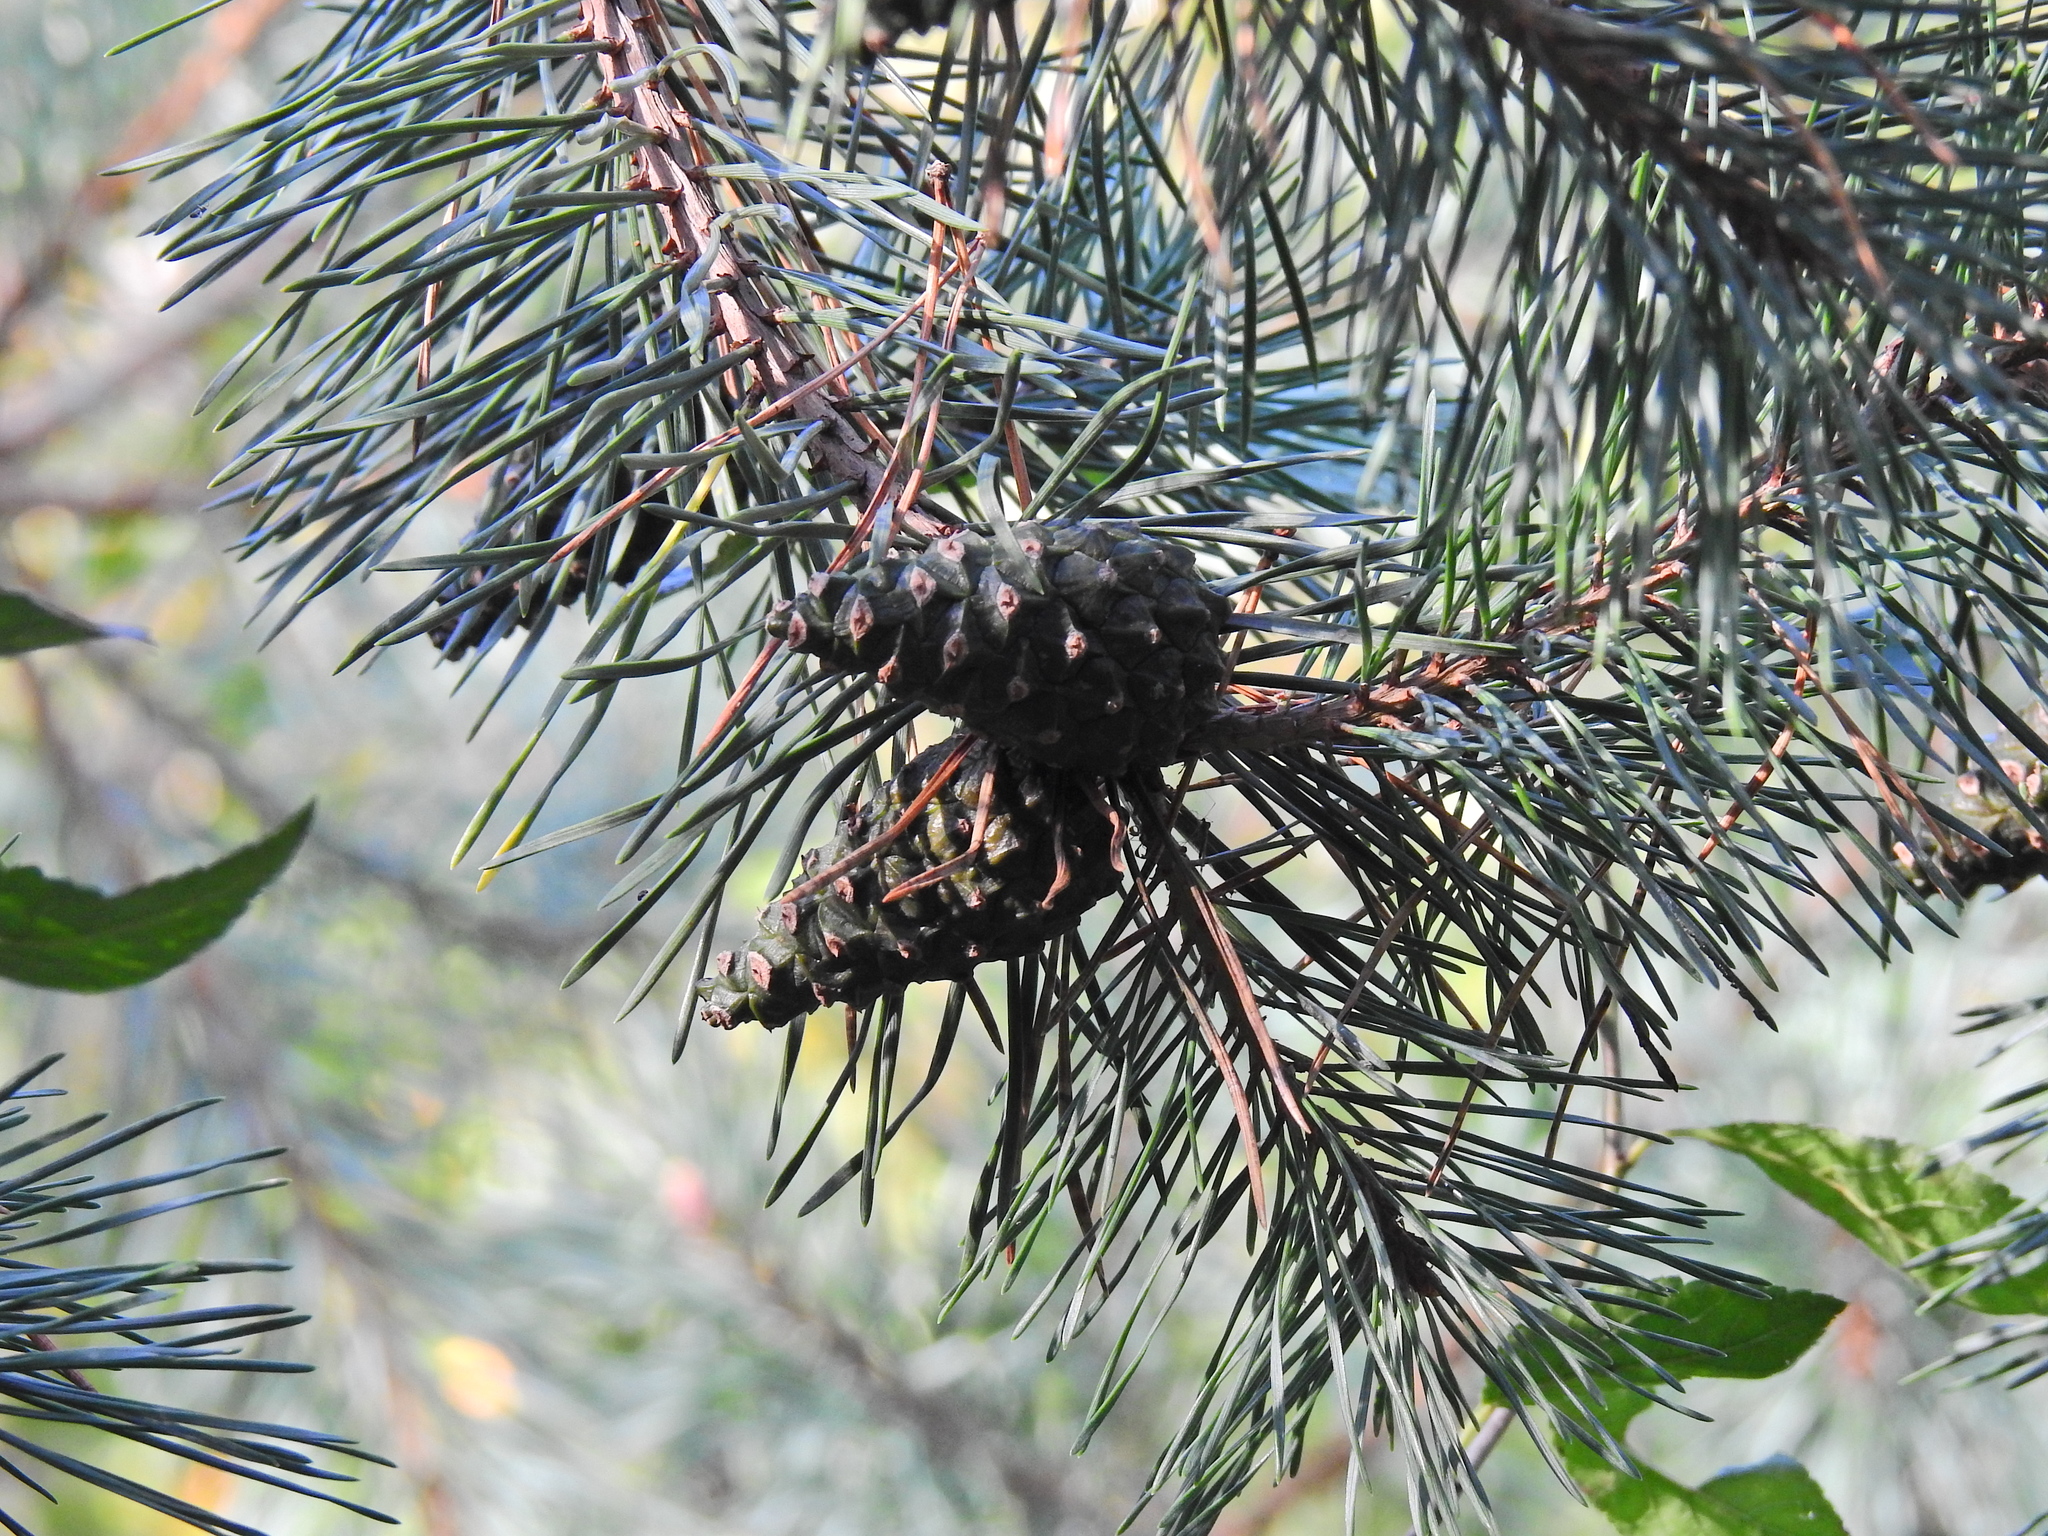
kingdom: Plantae
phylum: Tracheophyta
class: Pinopsida
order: Pinales
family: Pinaceae
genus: Pinus
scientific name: Pinus sylvestris
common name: Scots pine
